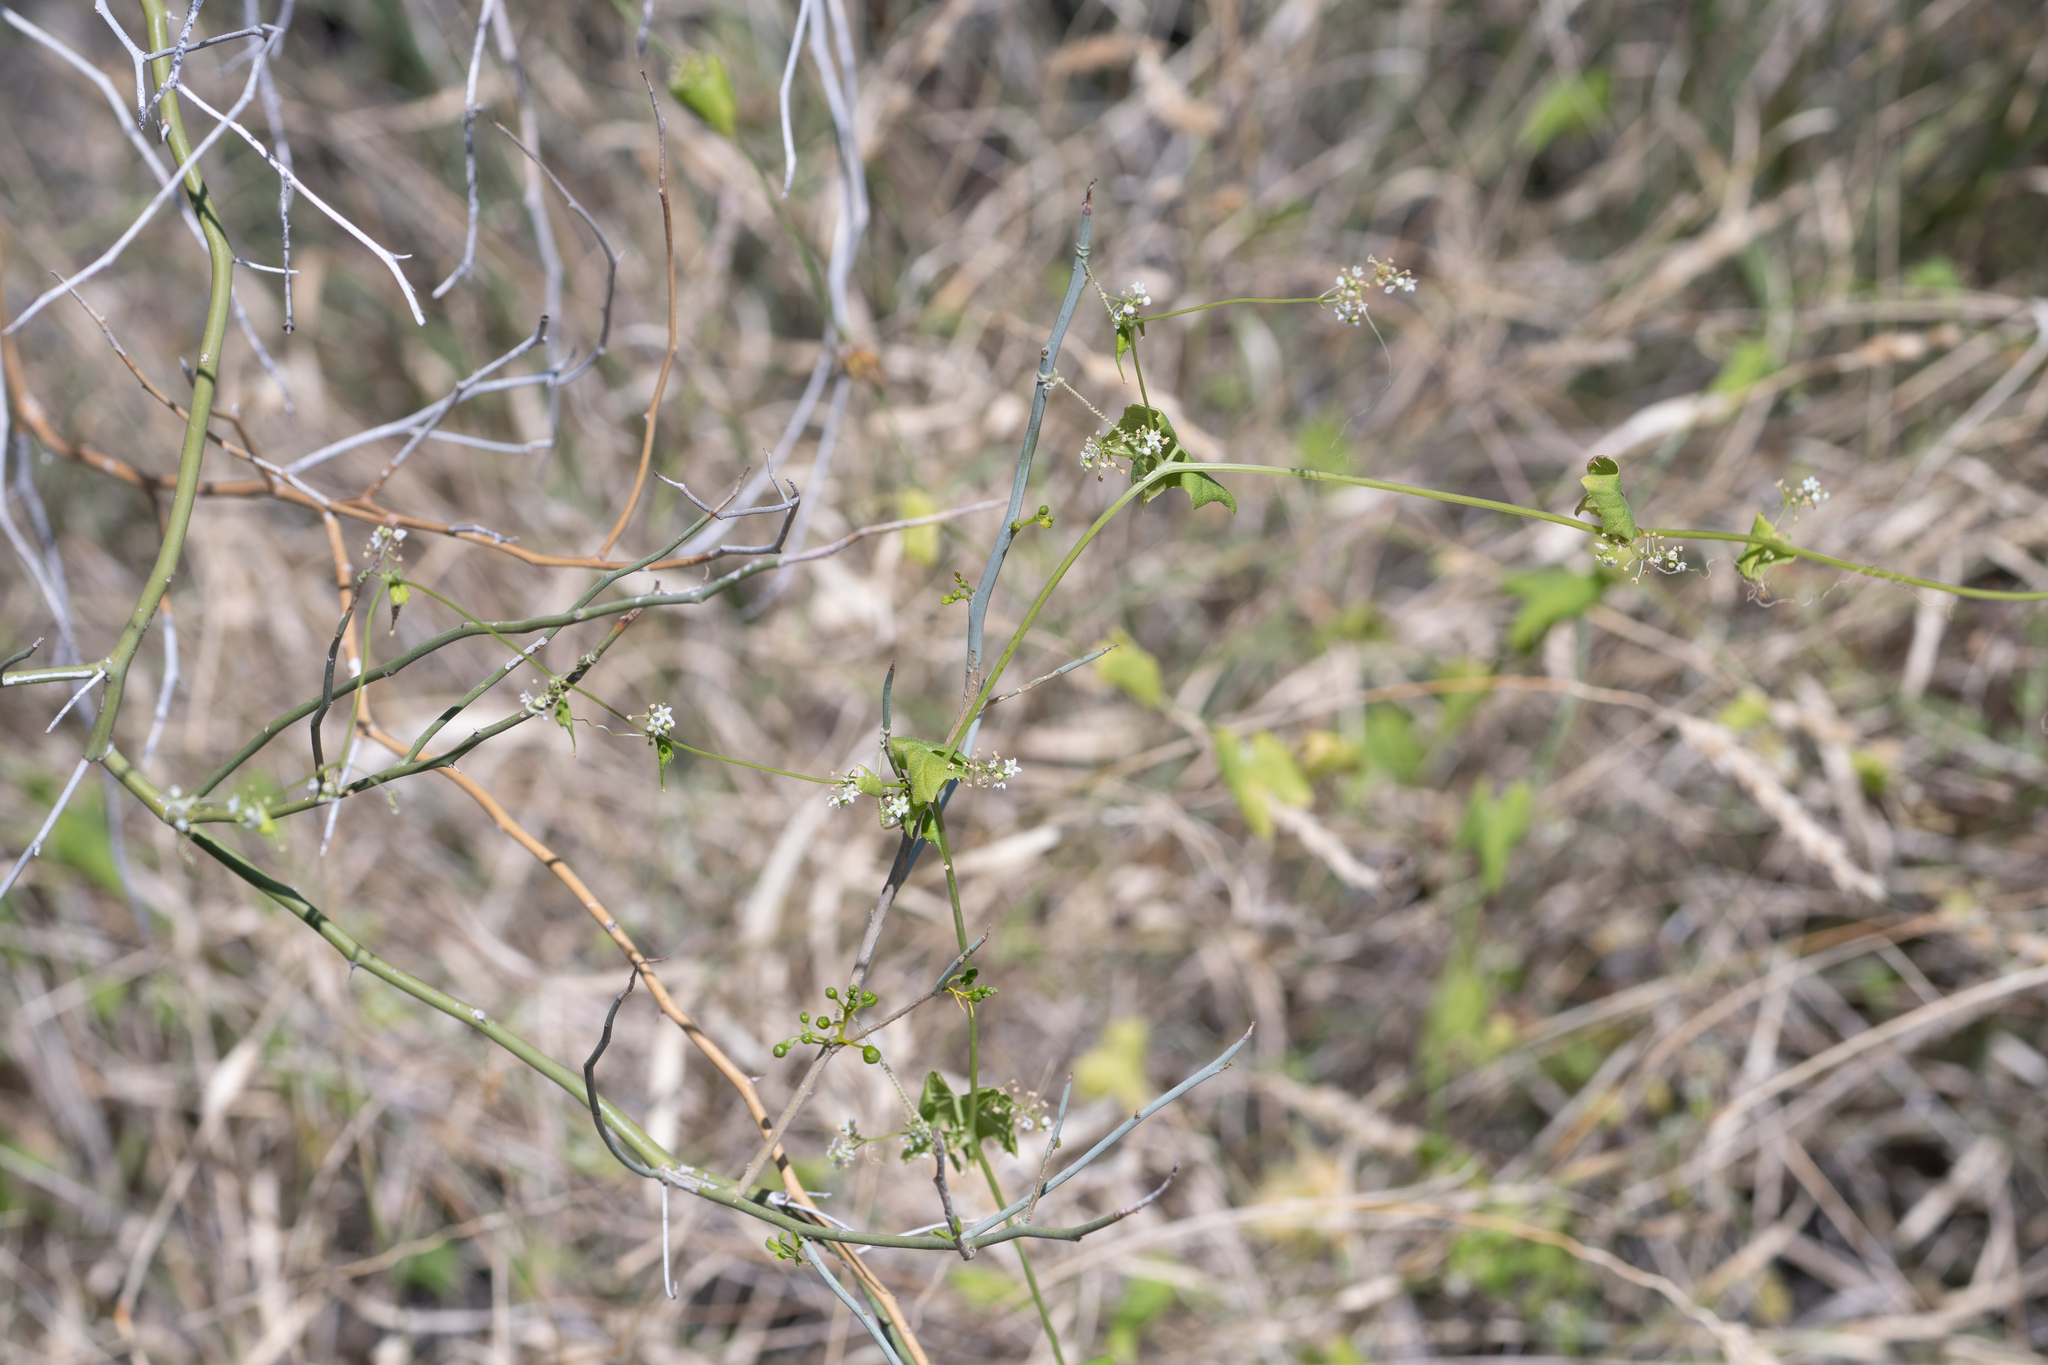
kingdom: Plantae
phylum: Tracheophyta
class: Magnoliopsida
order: Cucurbitales
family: Cucurbitaceae
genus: Echinopepon
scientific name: Echinopepon bigelovii
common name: Desert starvine
